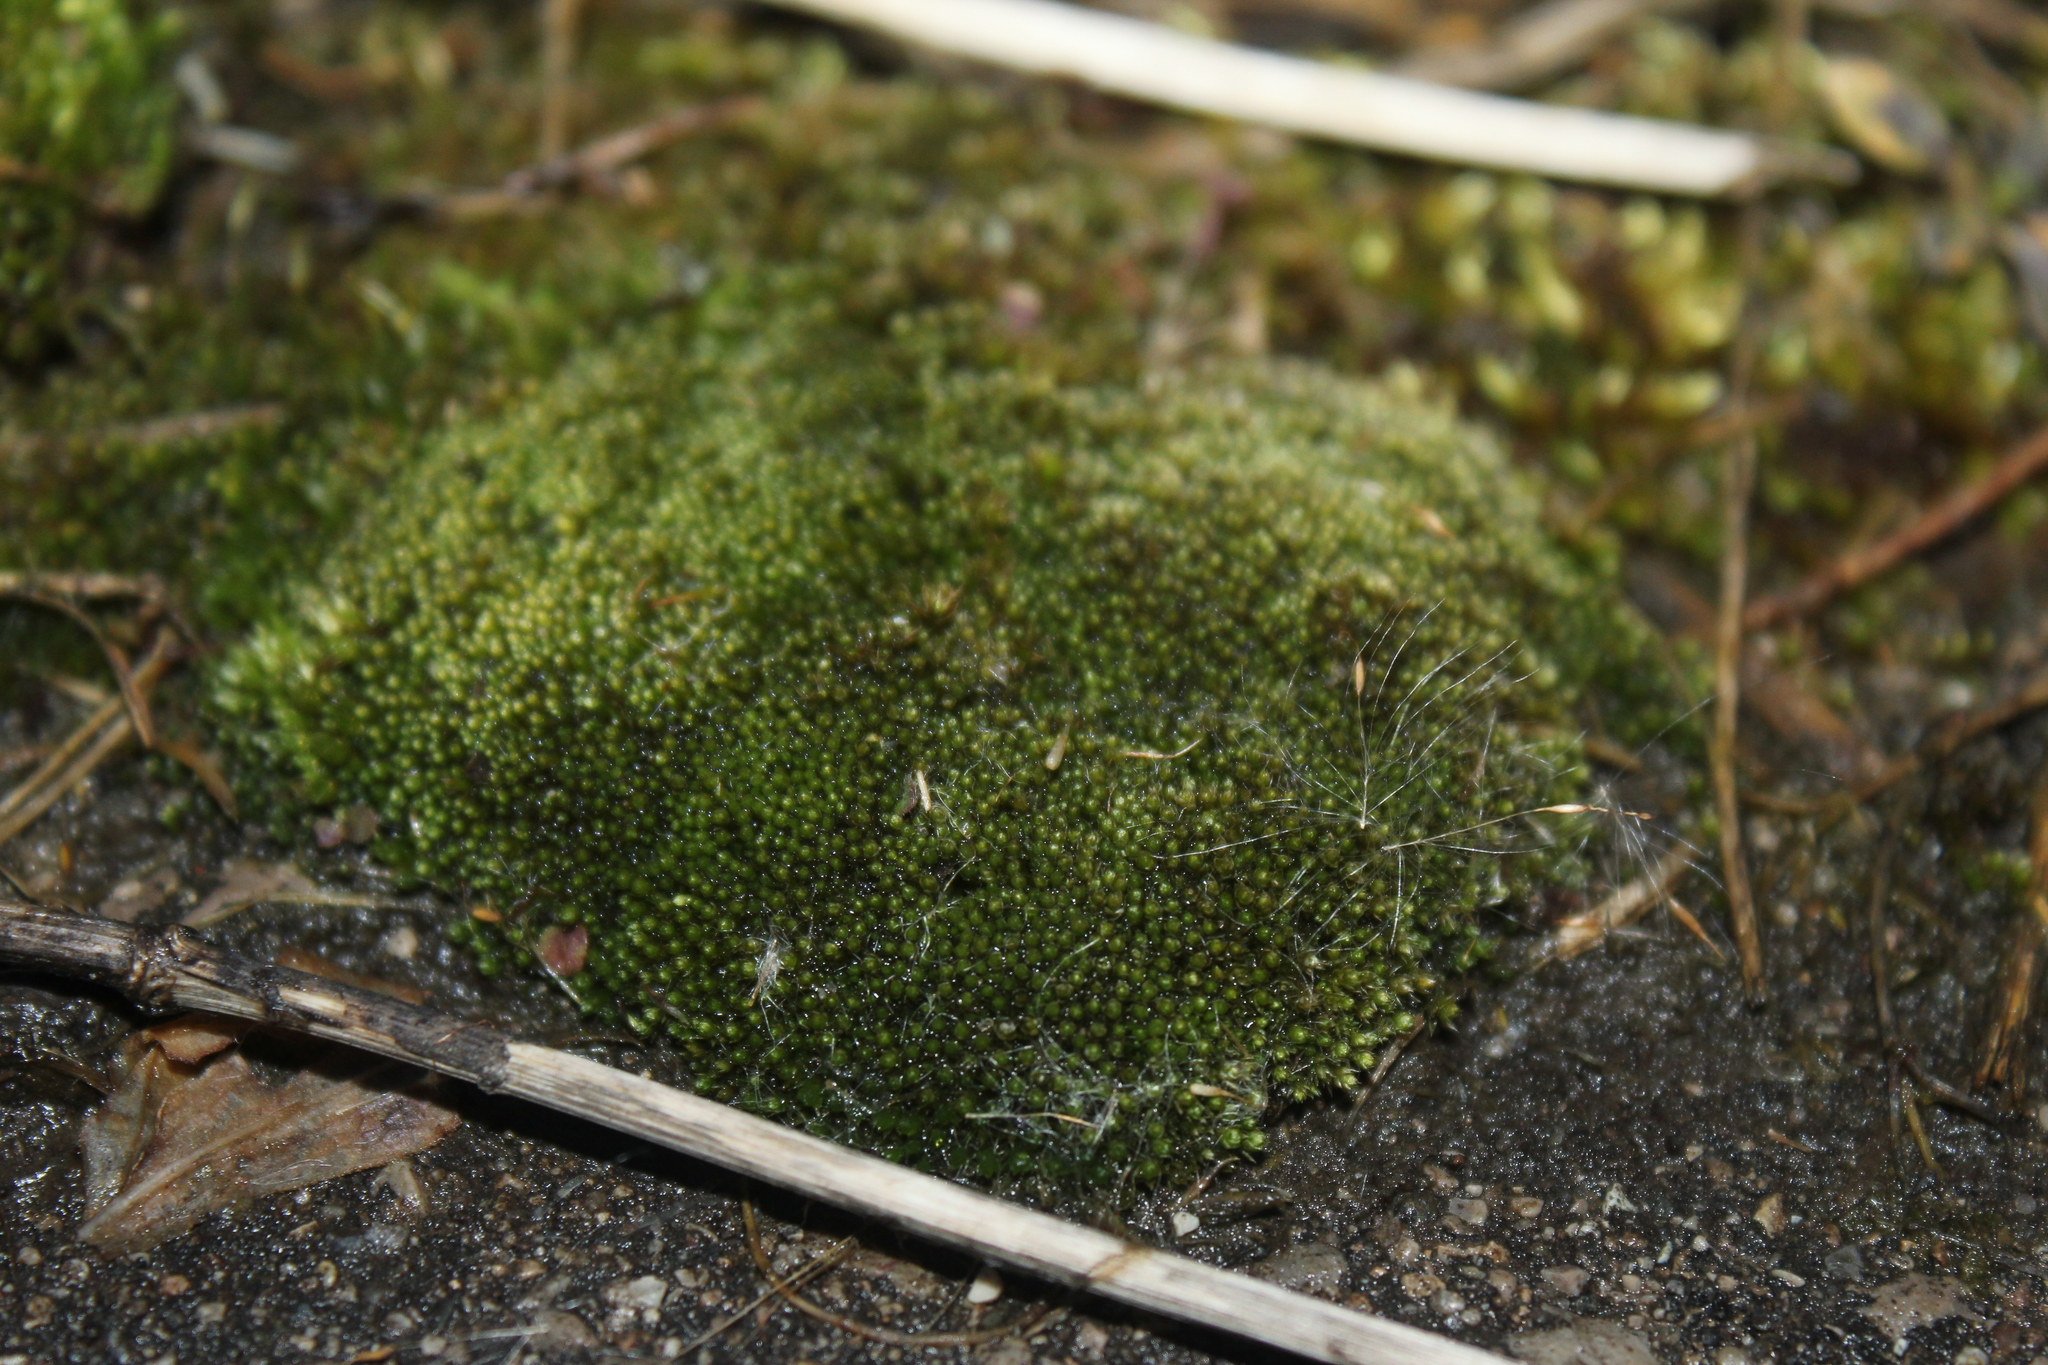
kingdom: Plantae
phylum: Bryophyta
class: Bryopsida
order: Bryales
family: Bryaceae
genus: Bryum
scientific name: Bryum argenteum
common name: Silver-moss
